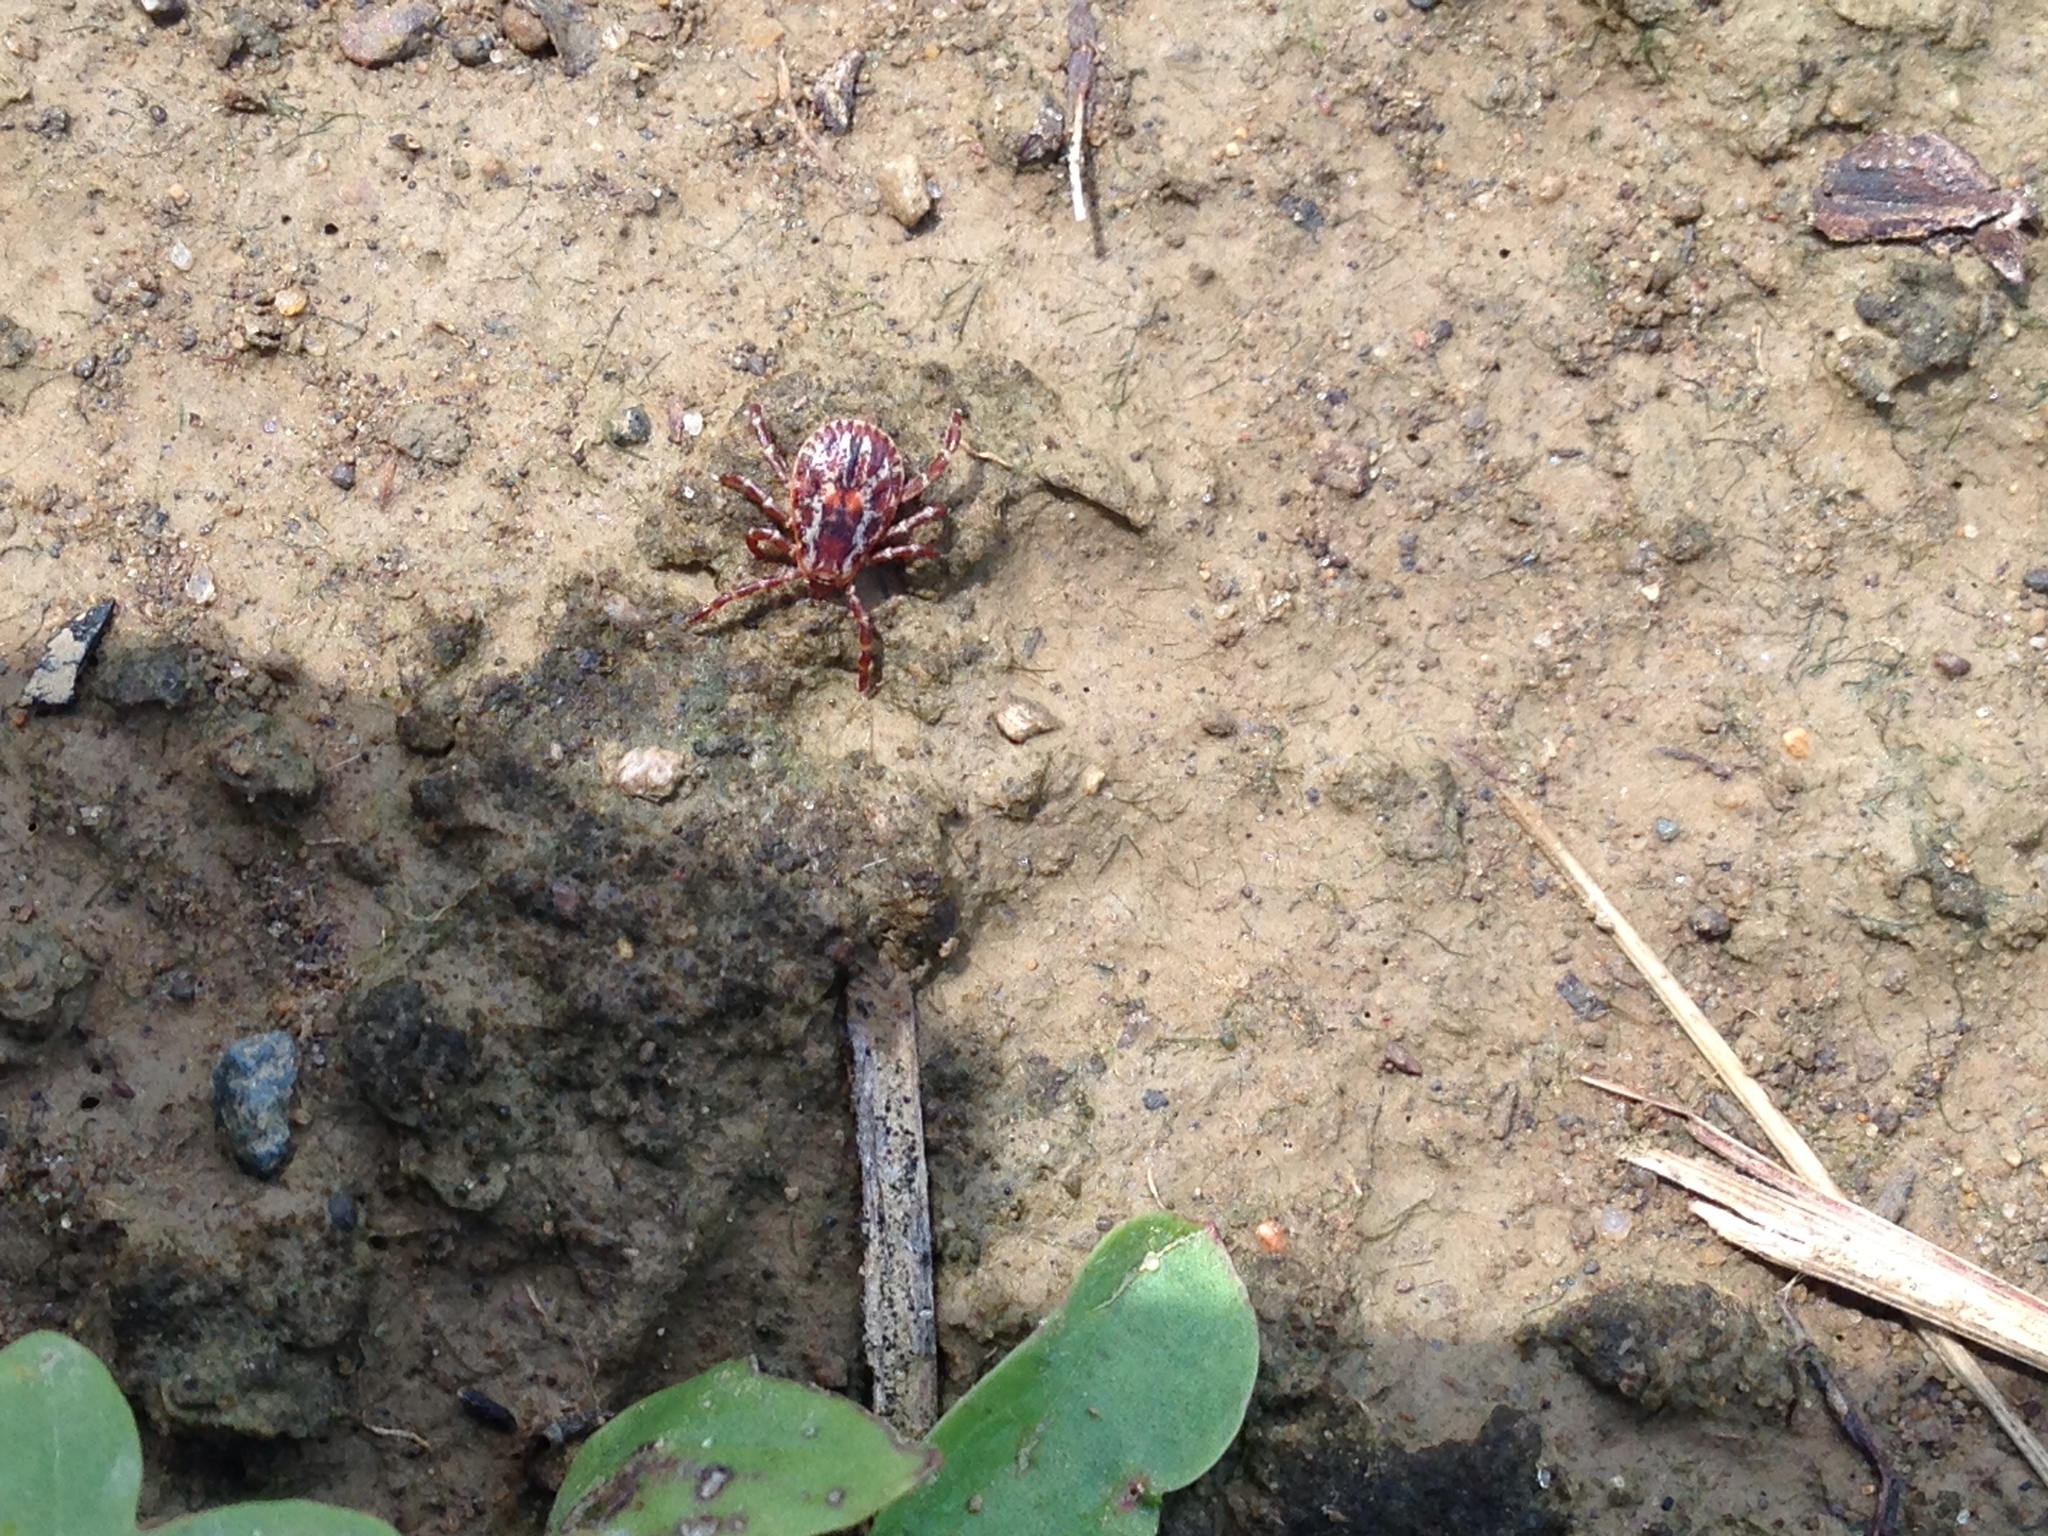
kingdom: Animalia
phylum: Arthropoda
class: Arachnida
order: Ixodida
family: Ixodidae
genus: Dermacentor
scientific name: Dermacentor variabilis
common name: American dog tick
